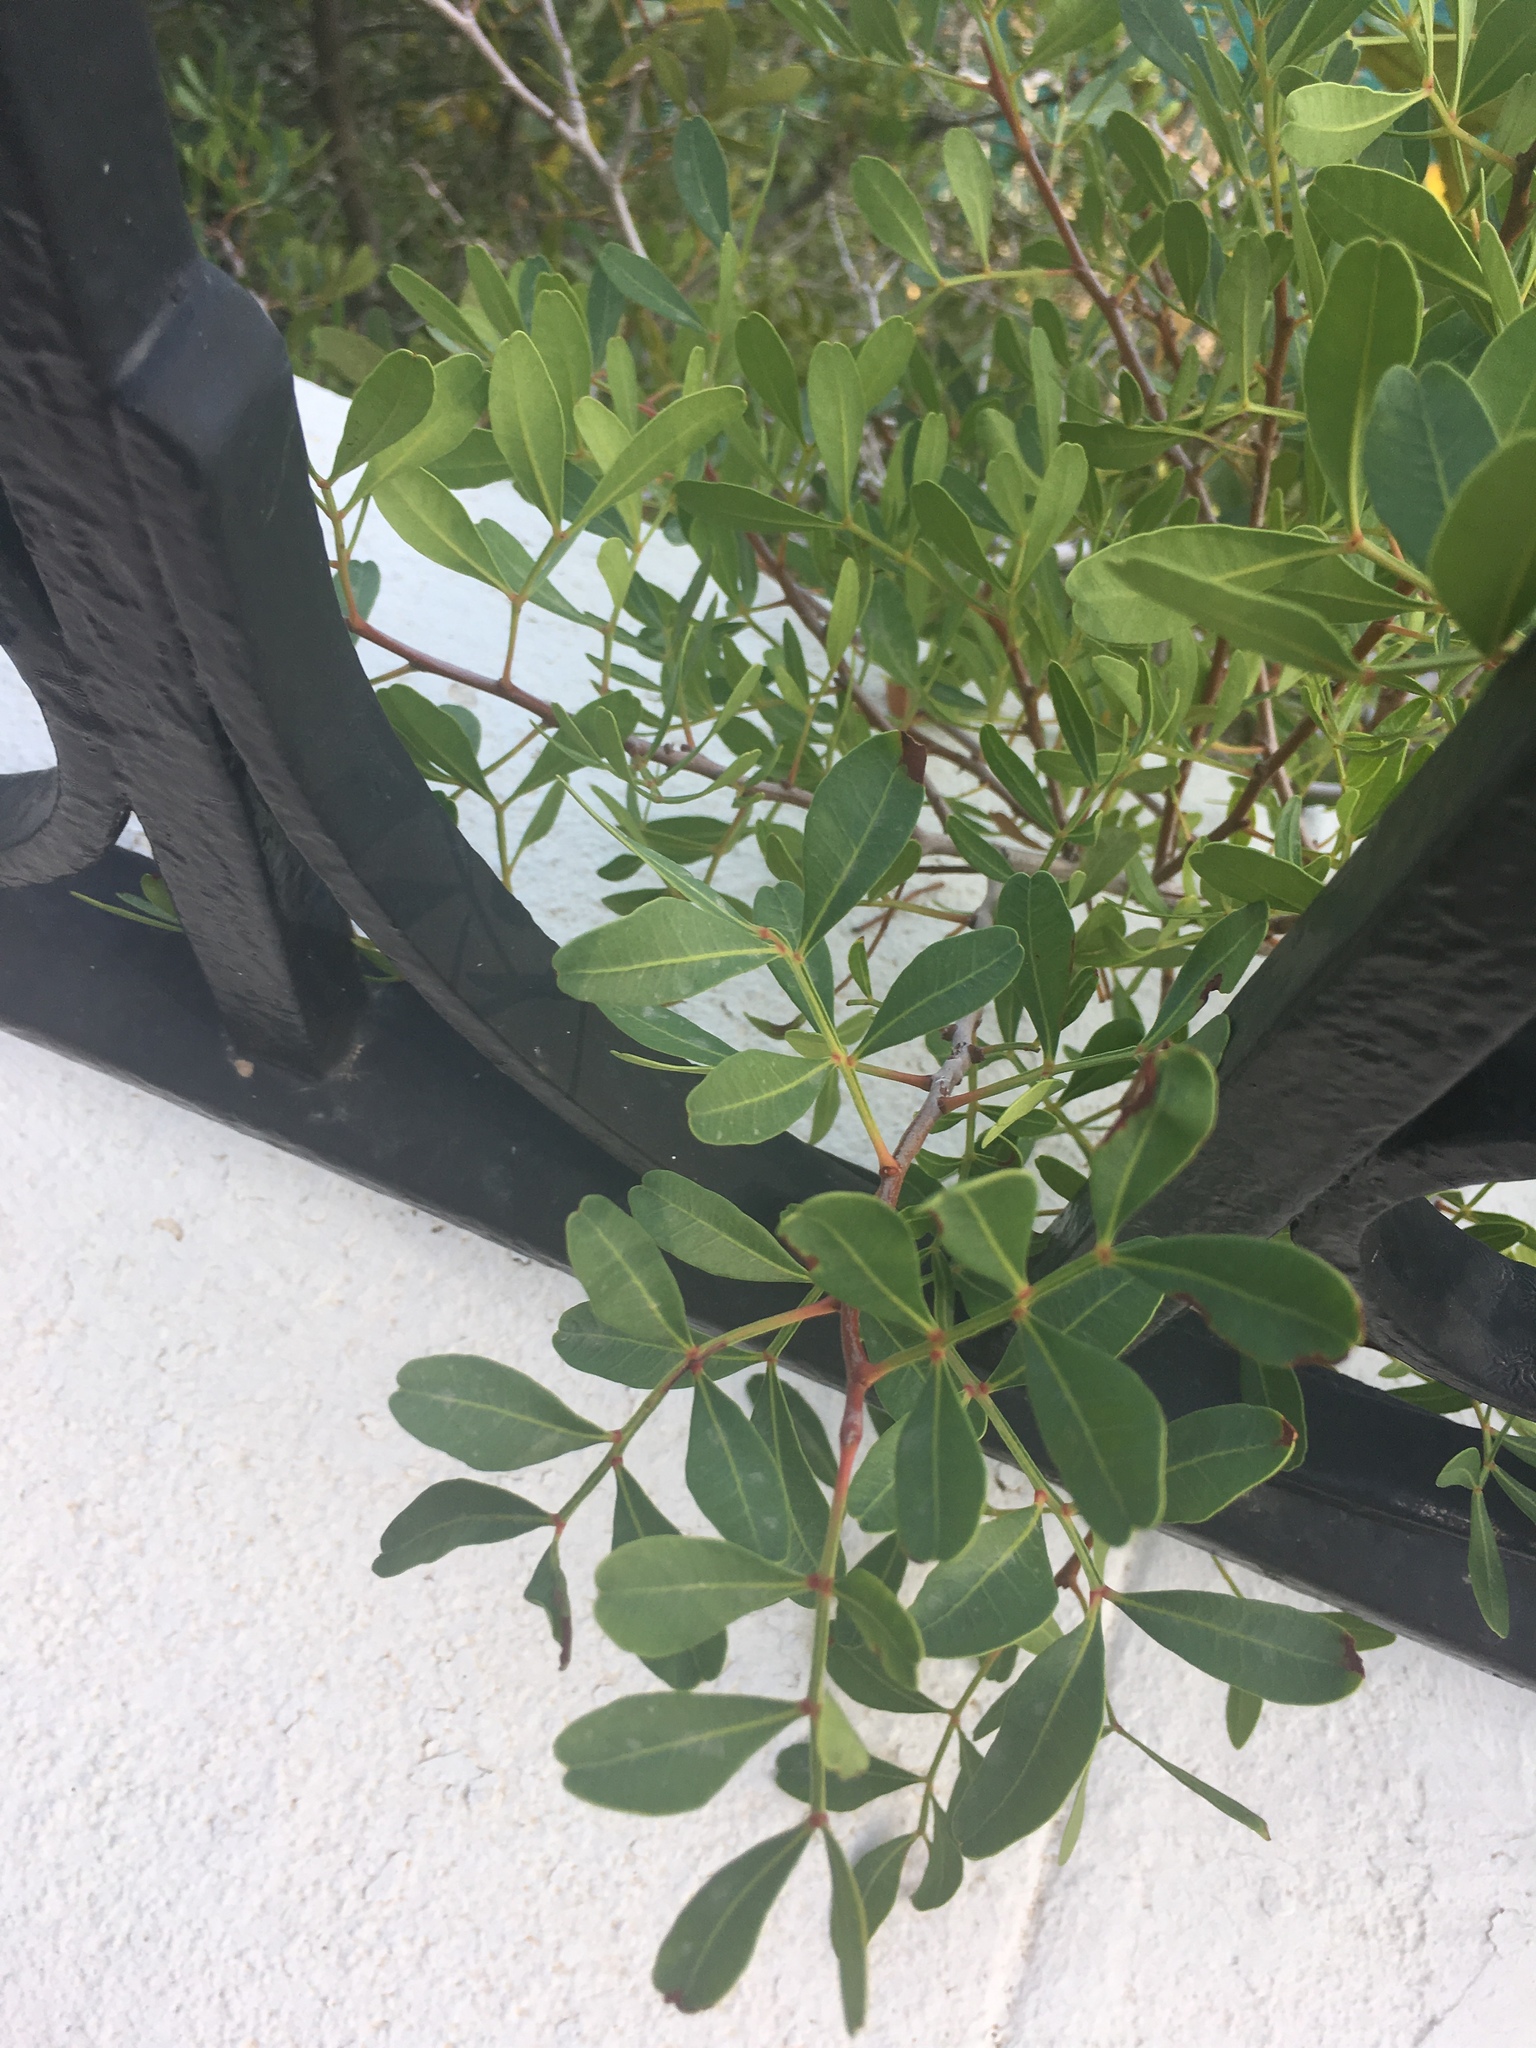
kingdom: Plantae
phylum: Tracheophyta
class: Magnoliopsida
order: Sapindales
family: Anacardiaceae
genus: Pistacia
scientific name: Pistacia lentiscus
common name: Lentisk
